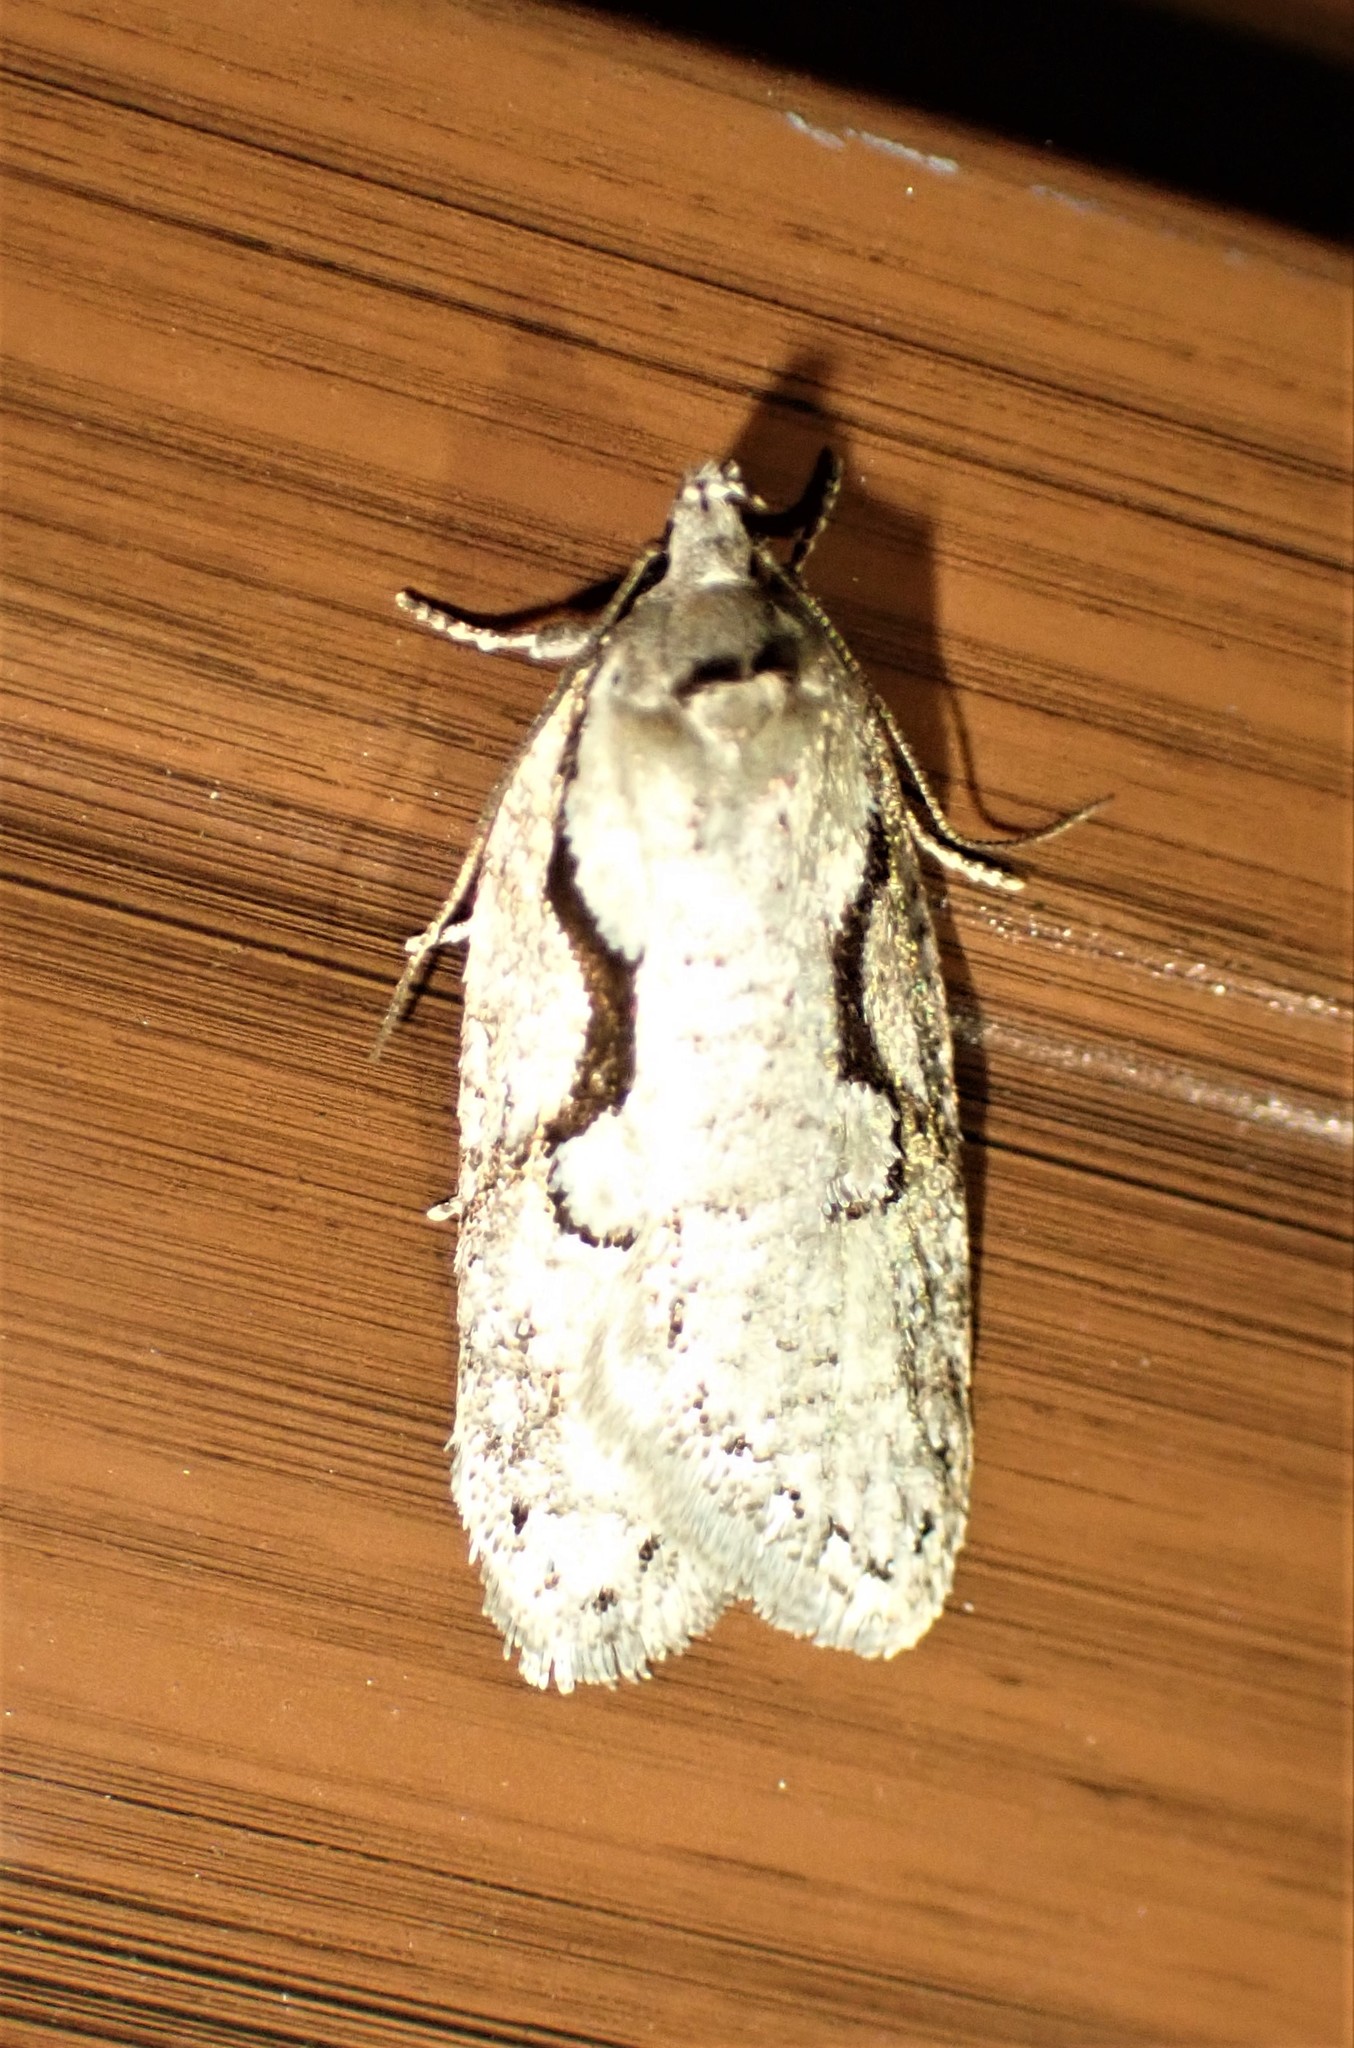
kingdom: Animalia
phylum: Arthropoda
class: Insecta
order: Lepidoptera
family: Depressariidae
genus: Semioscopis
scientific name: Semioscopis packardella
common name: Packard's concealer moth
